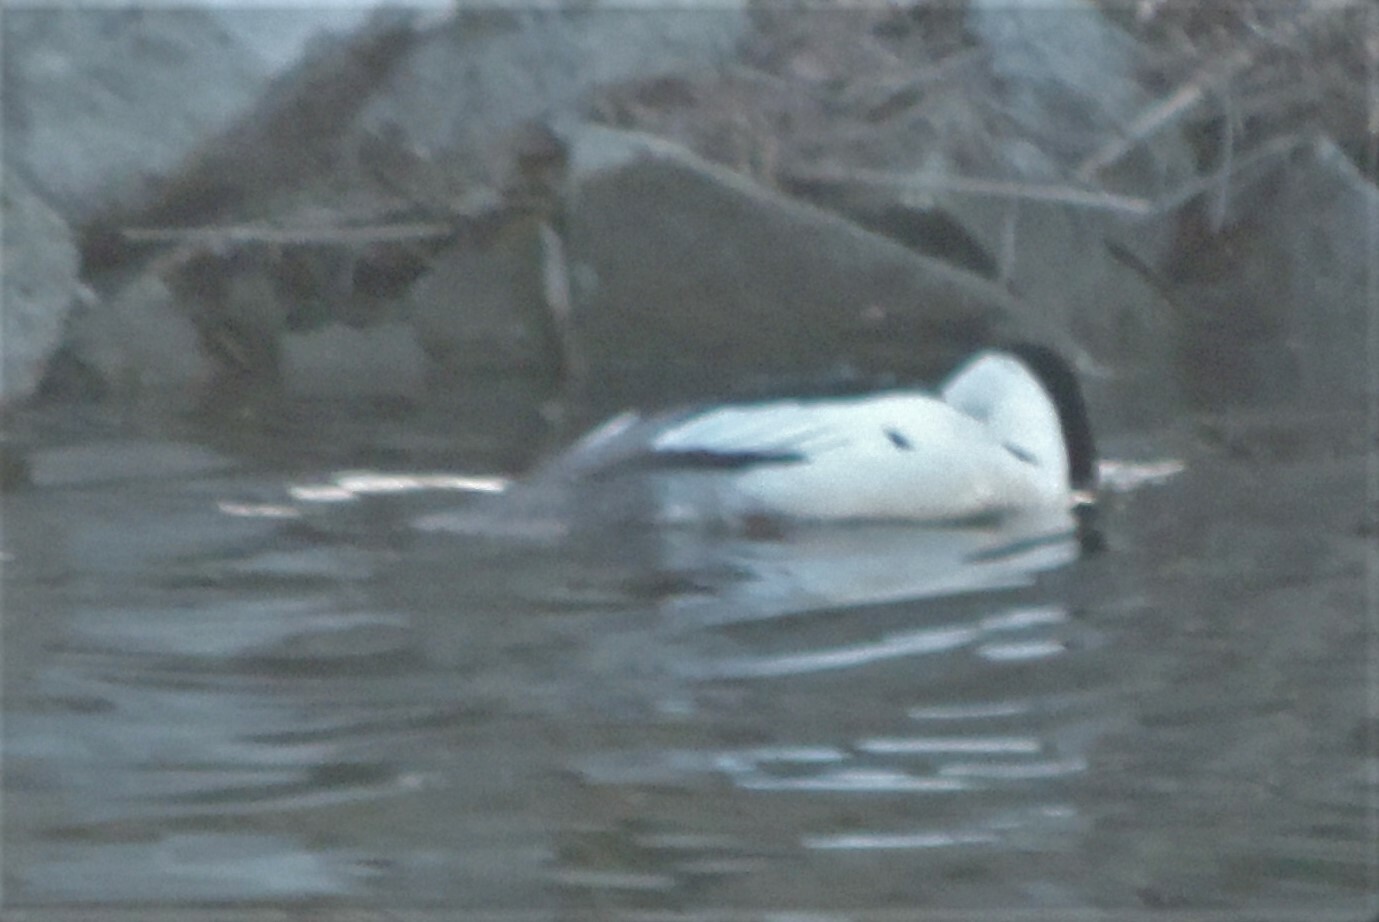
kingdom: Animalia
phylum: Chordata
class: Aves
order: Anseriformes
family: Anatidae
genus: Mergus
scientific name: Mergus merganser
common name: Common merganser
